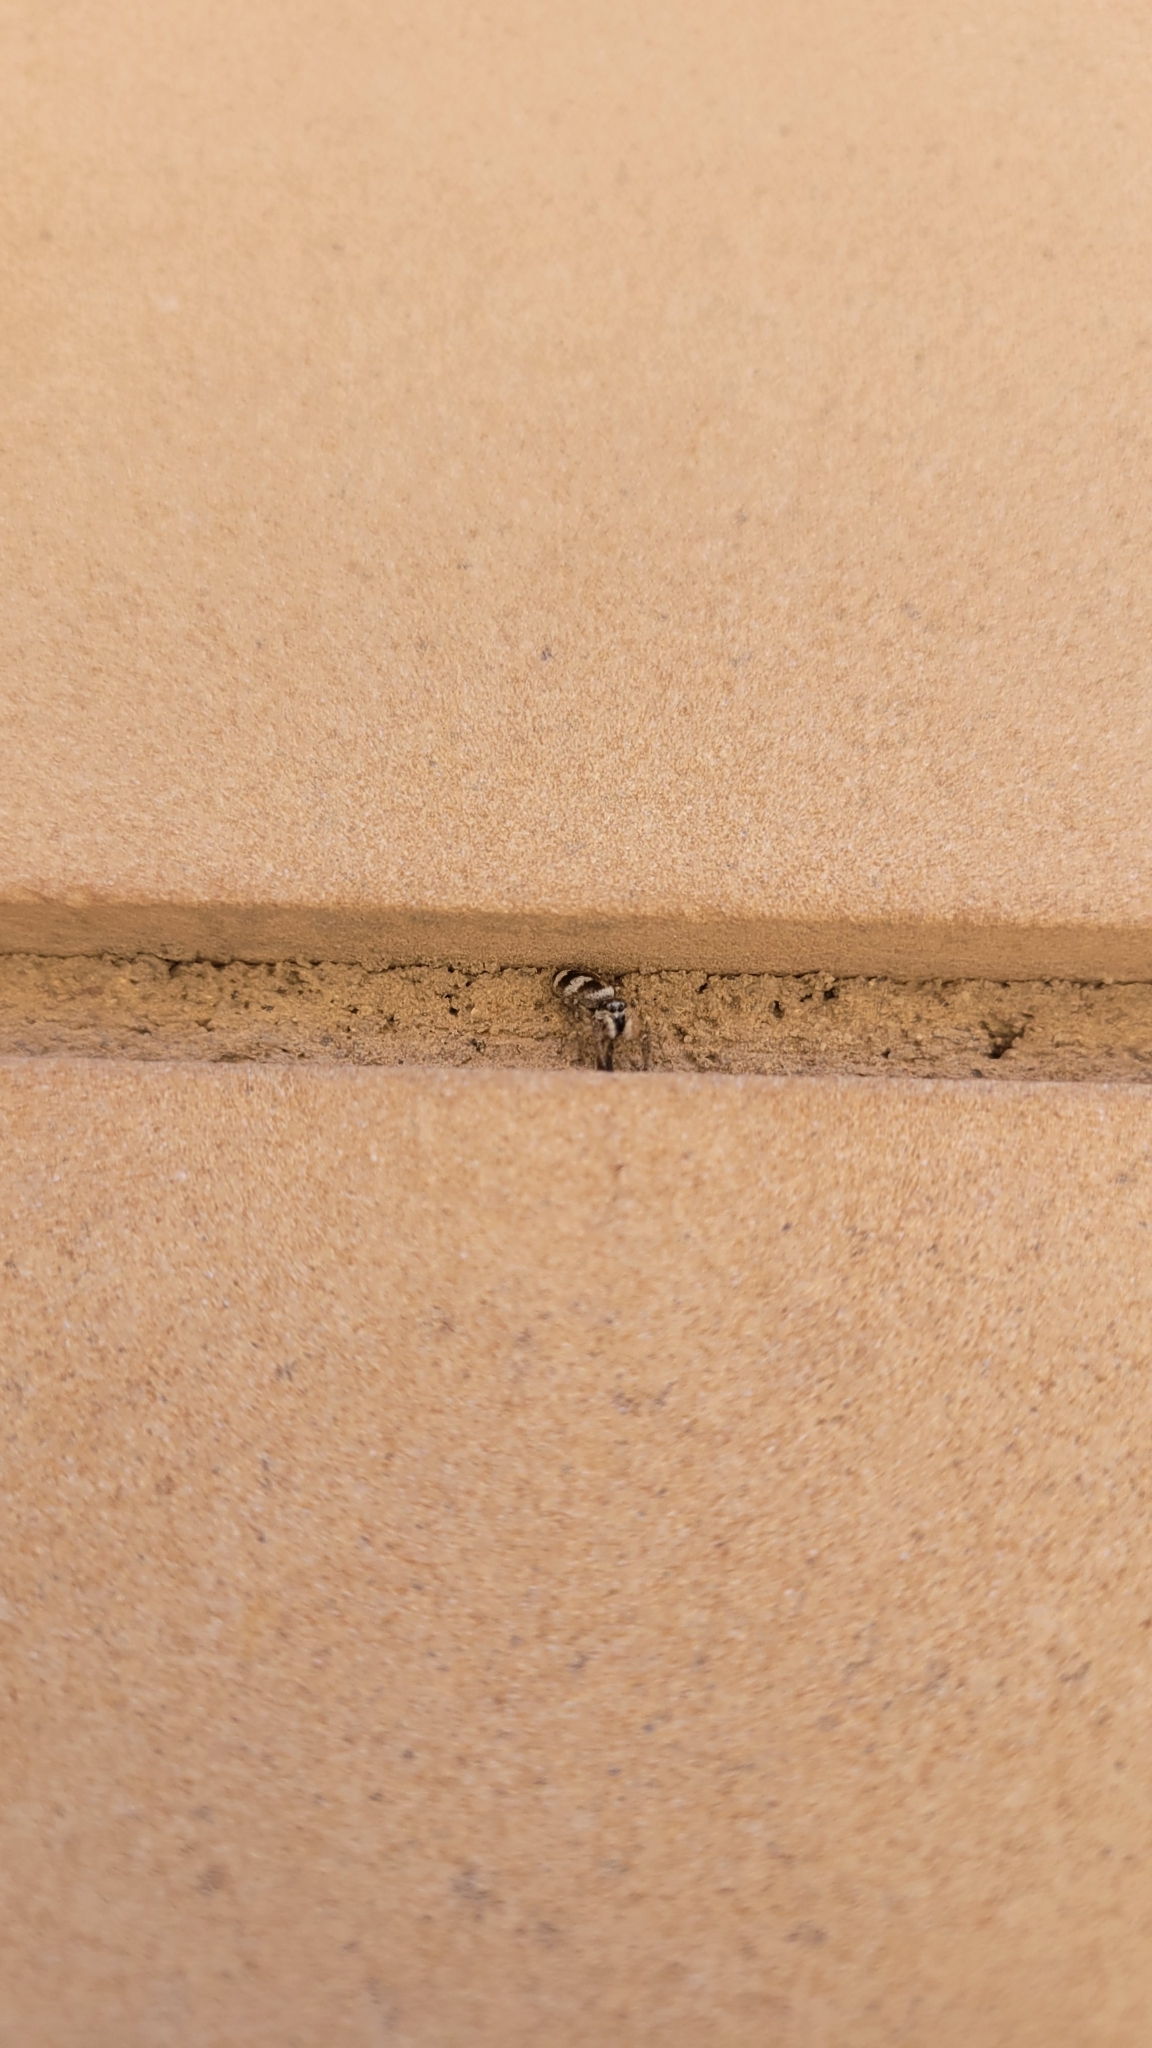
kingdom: Animalia
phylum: Arthropoda
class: Arachnida
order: Araneae
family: Salticidae
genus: Salticus
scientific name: Salticus scenicus
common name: Zebra jumper
